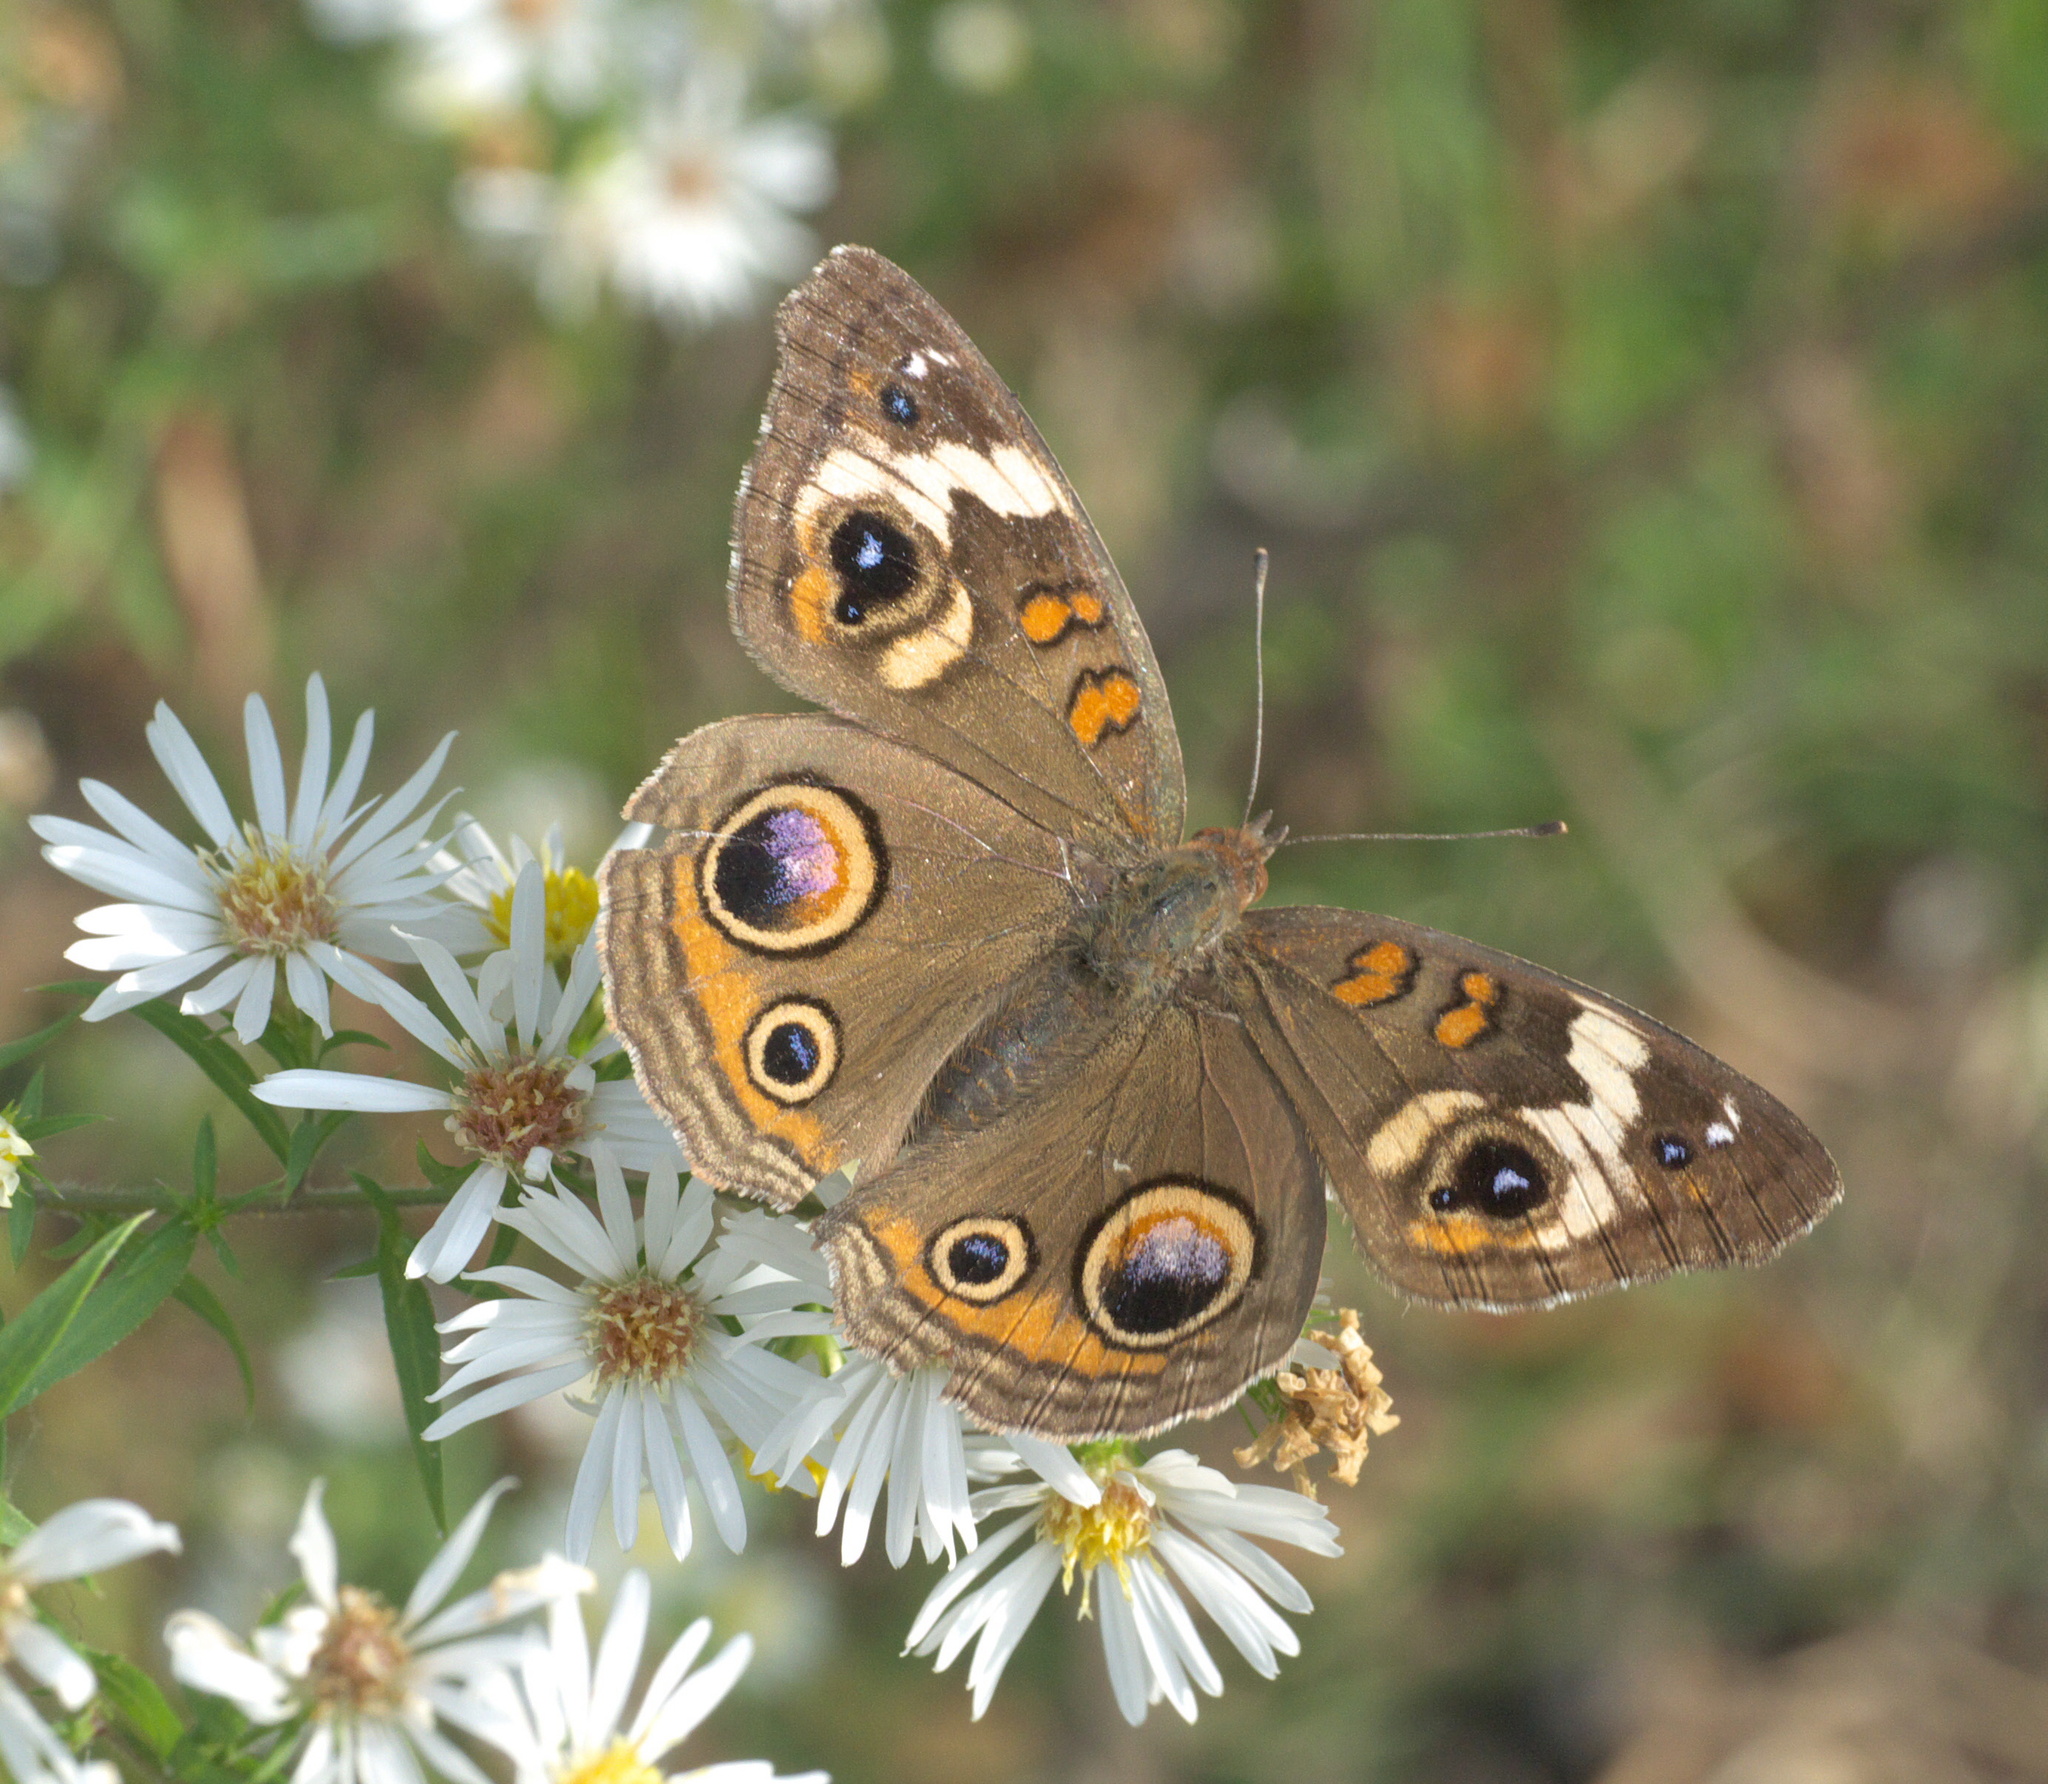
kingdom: Animalia
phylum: Arthropoda
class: Insecta
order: Lepidoptera
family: Nymphalidae
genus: Junonia
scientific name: Junonia coenia
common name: Common buckeye
